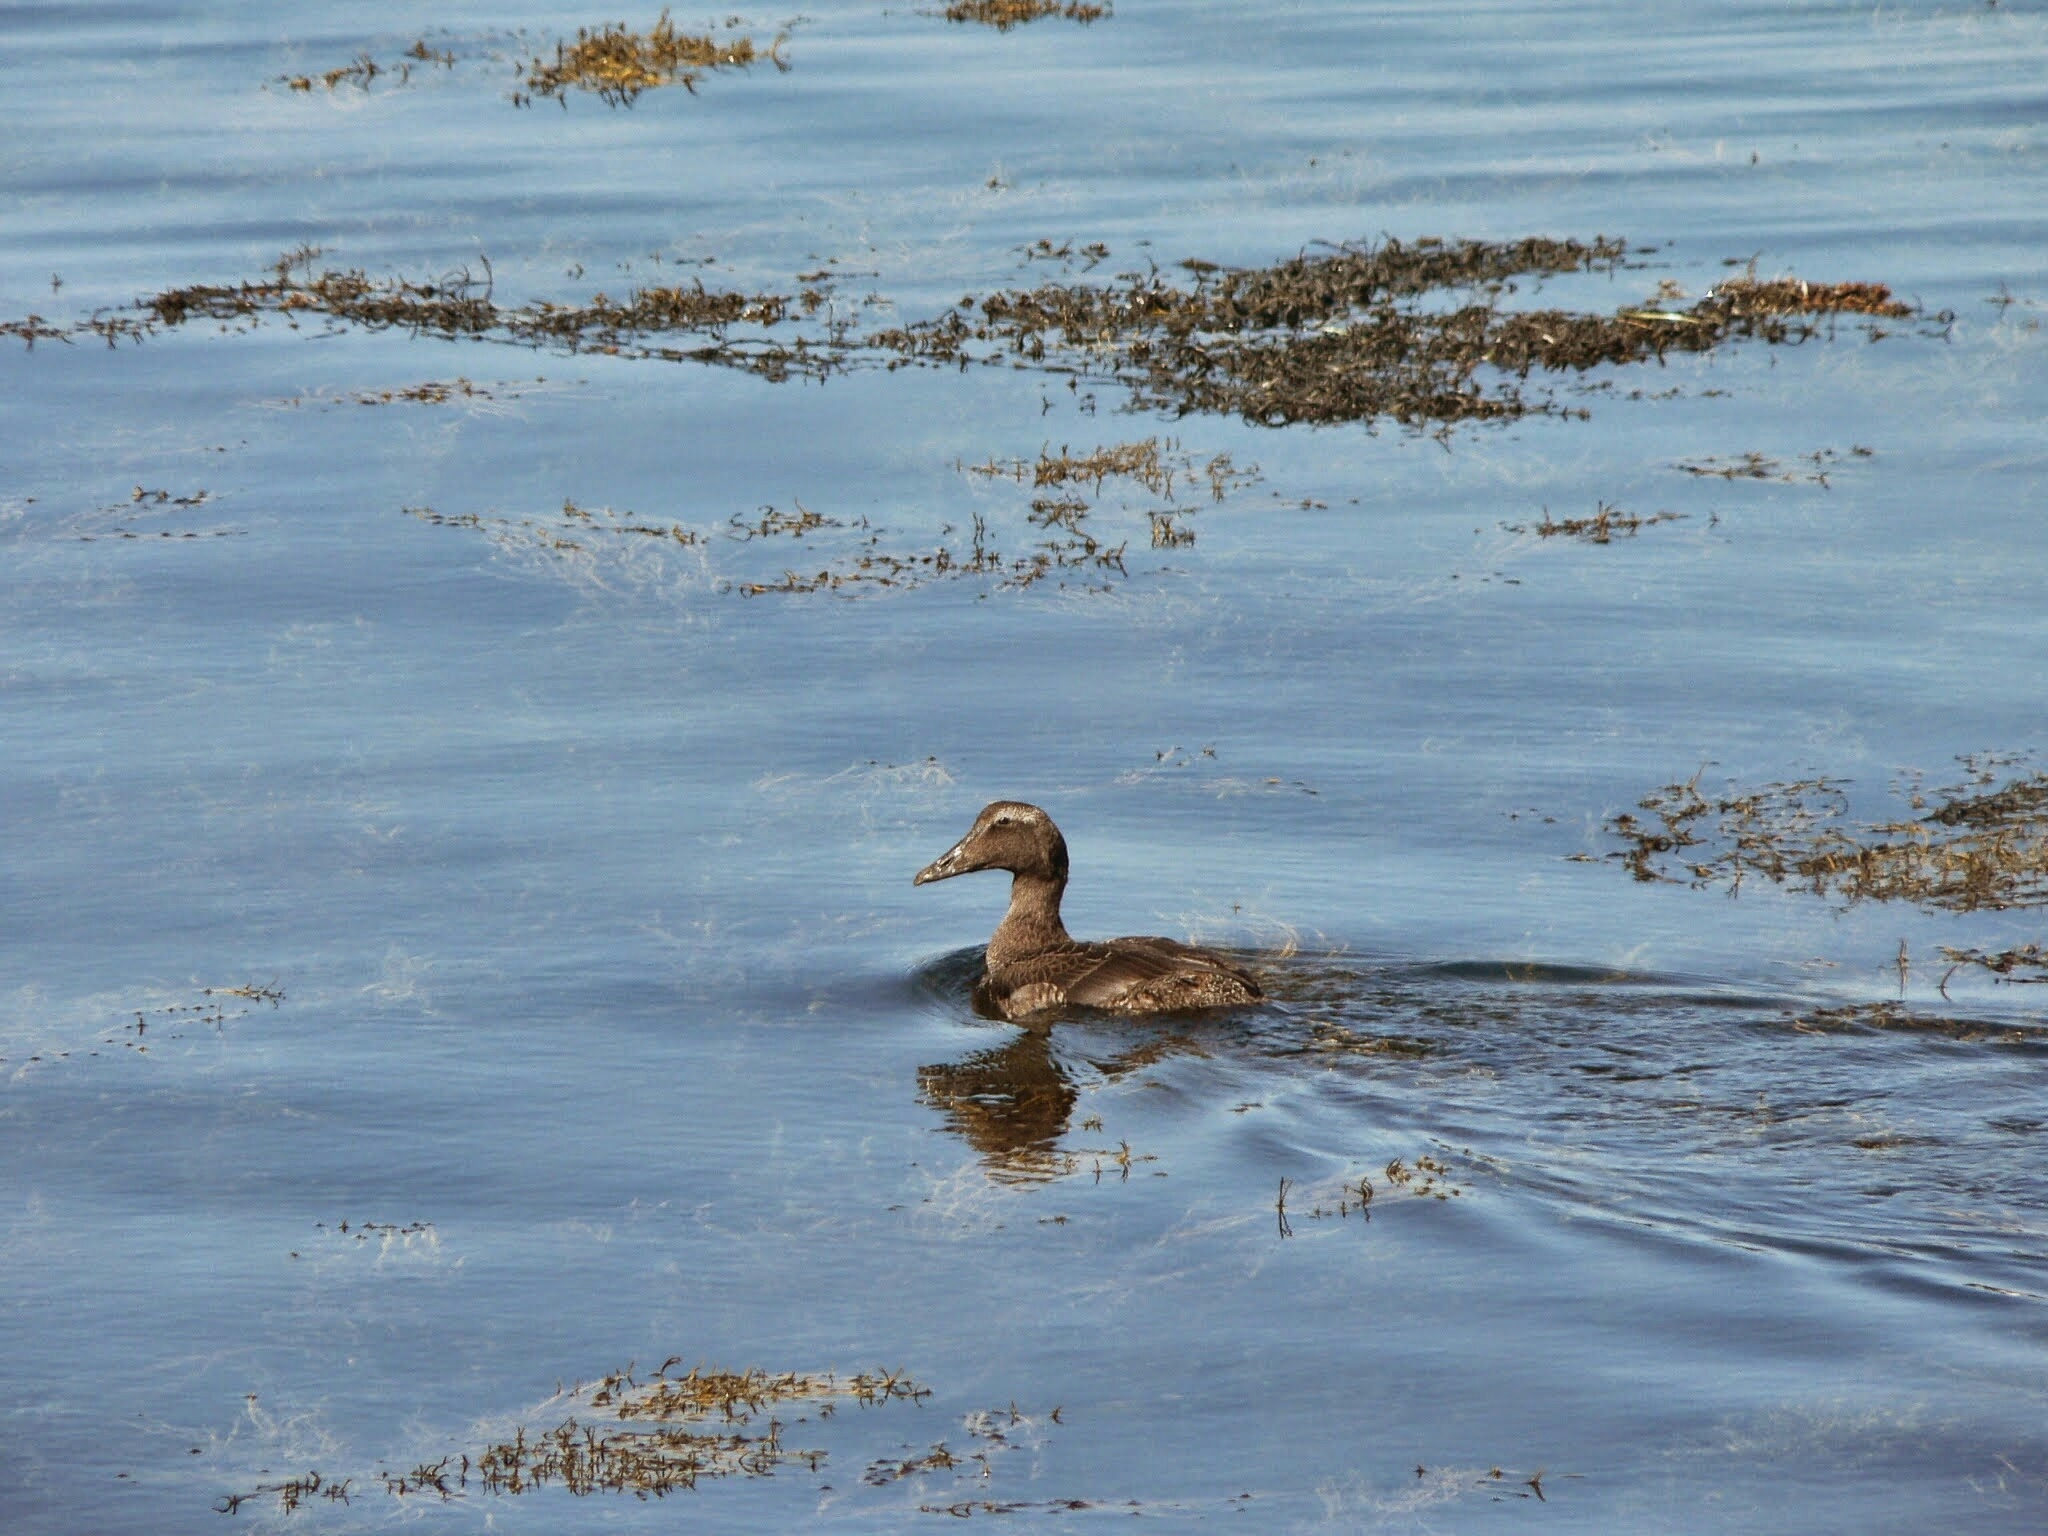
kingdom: Animalia
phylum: Chordata
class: Aves
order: Anseriformes
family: Anatidae
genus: Somateria
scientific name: Somateria mollissima
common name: Common eider
